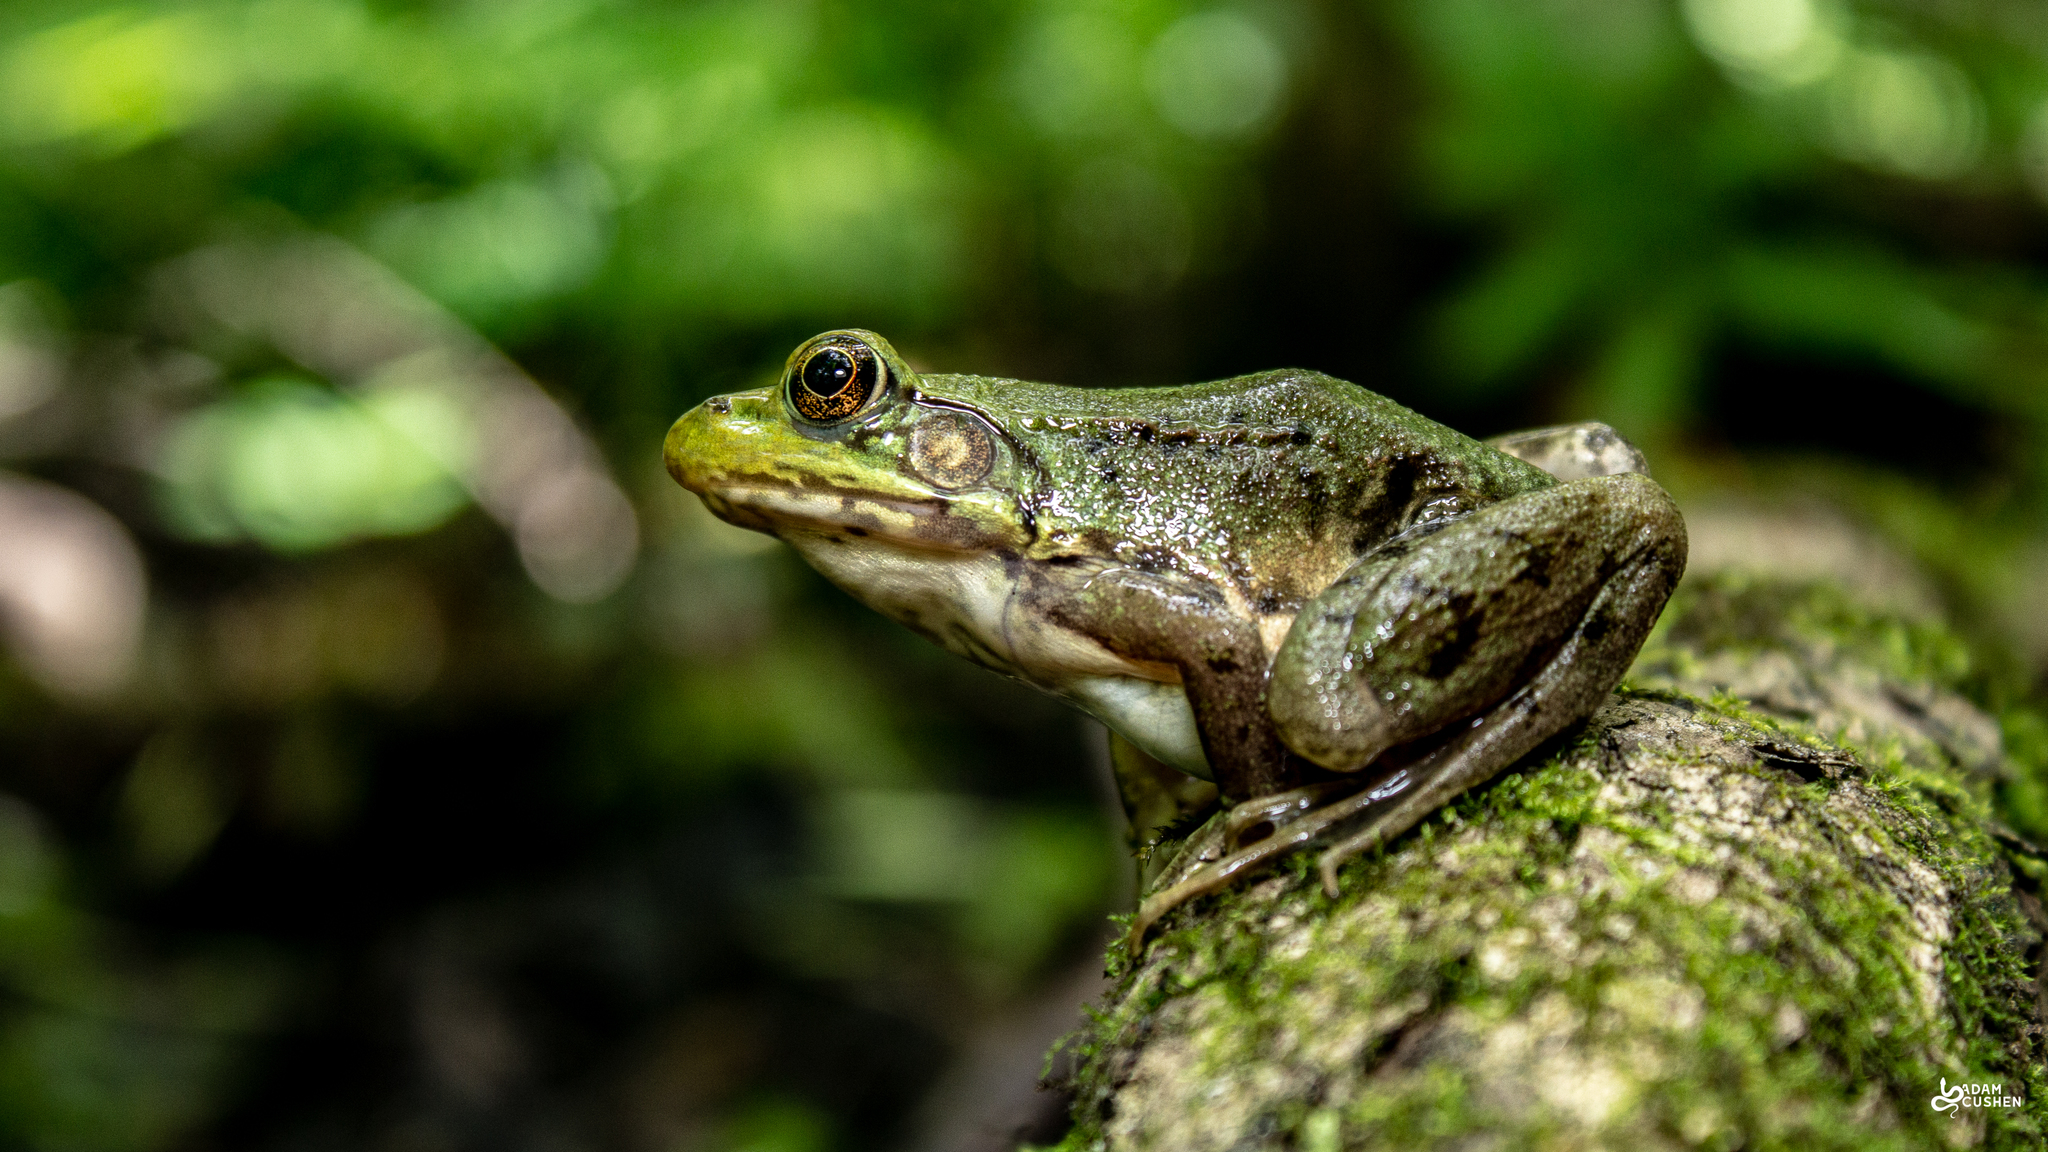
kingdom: Animalia
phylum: Chordata
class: Amphibia
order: Anura
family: Ranidae
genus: Lithobates
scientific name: Lithobates clamitans
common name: Green frog
